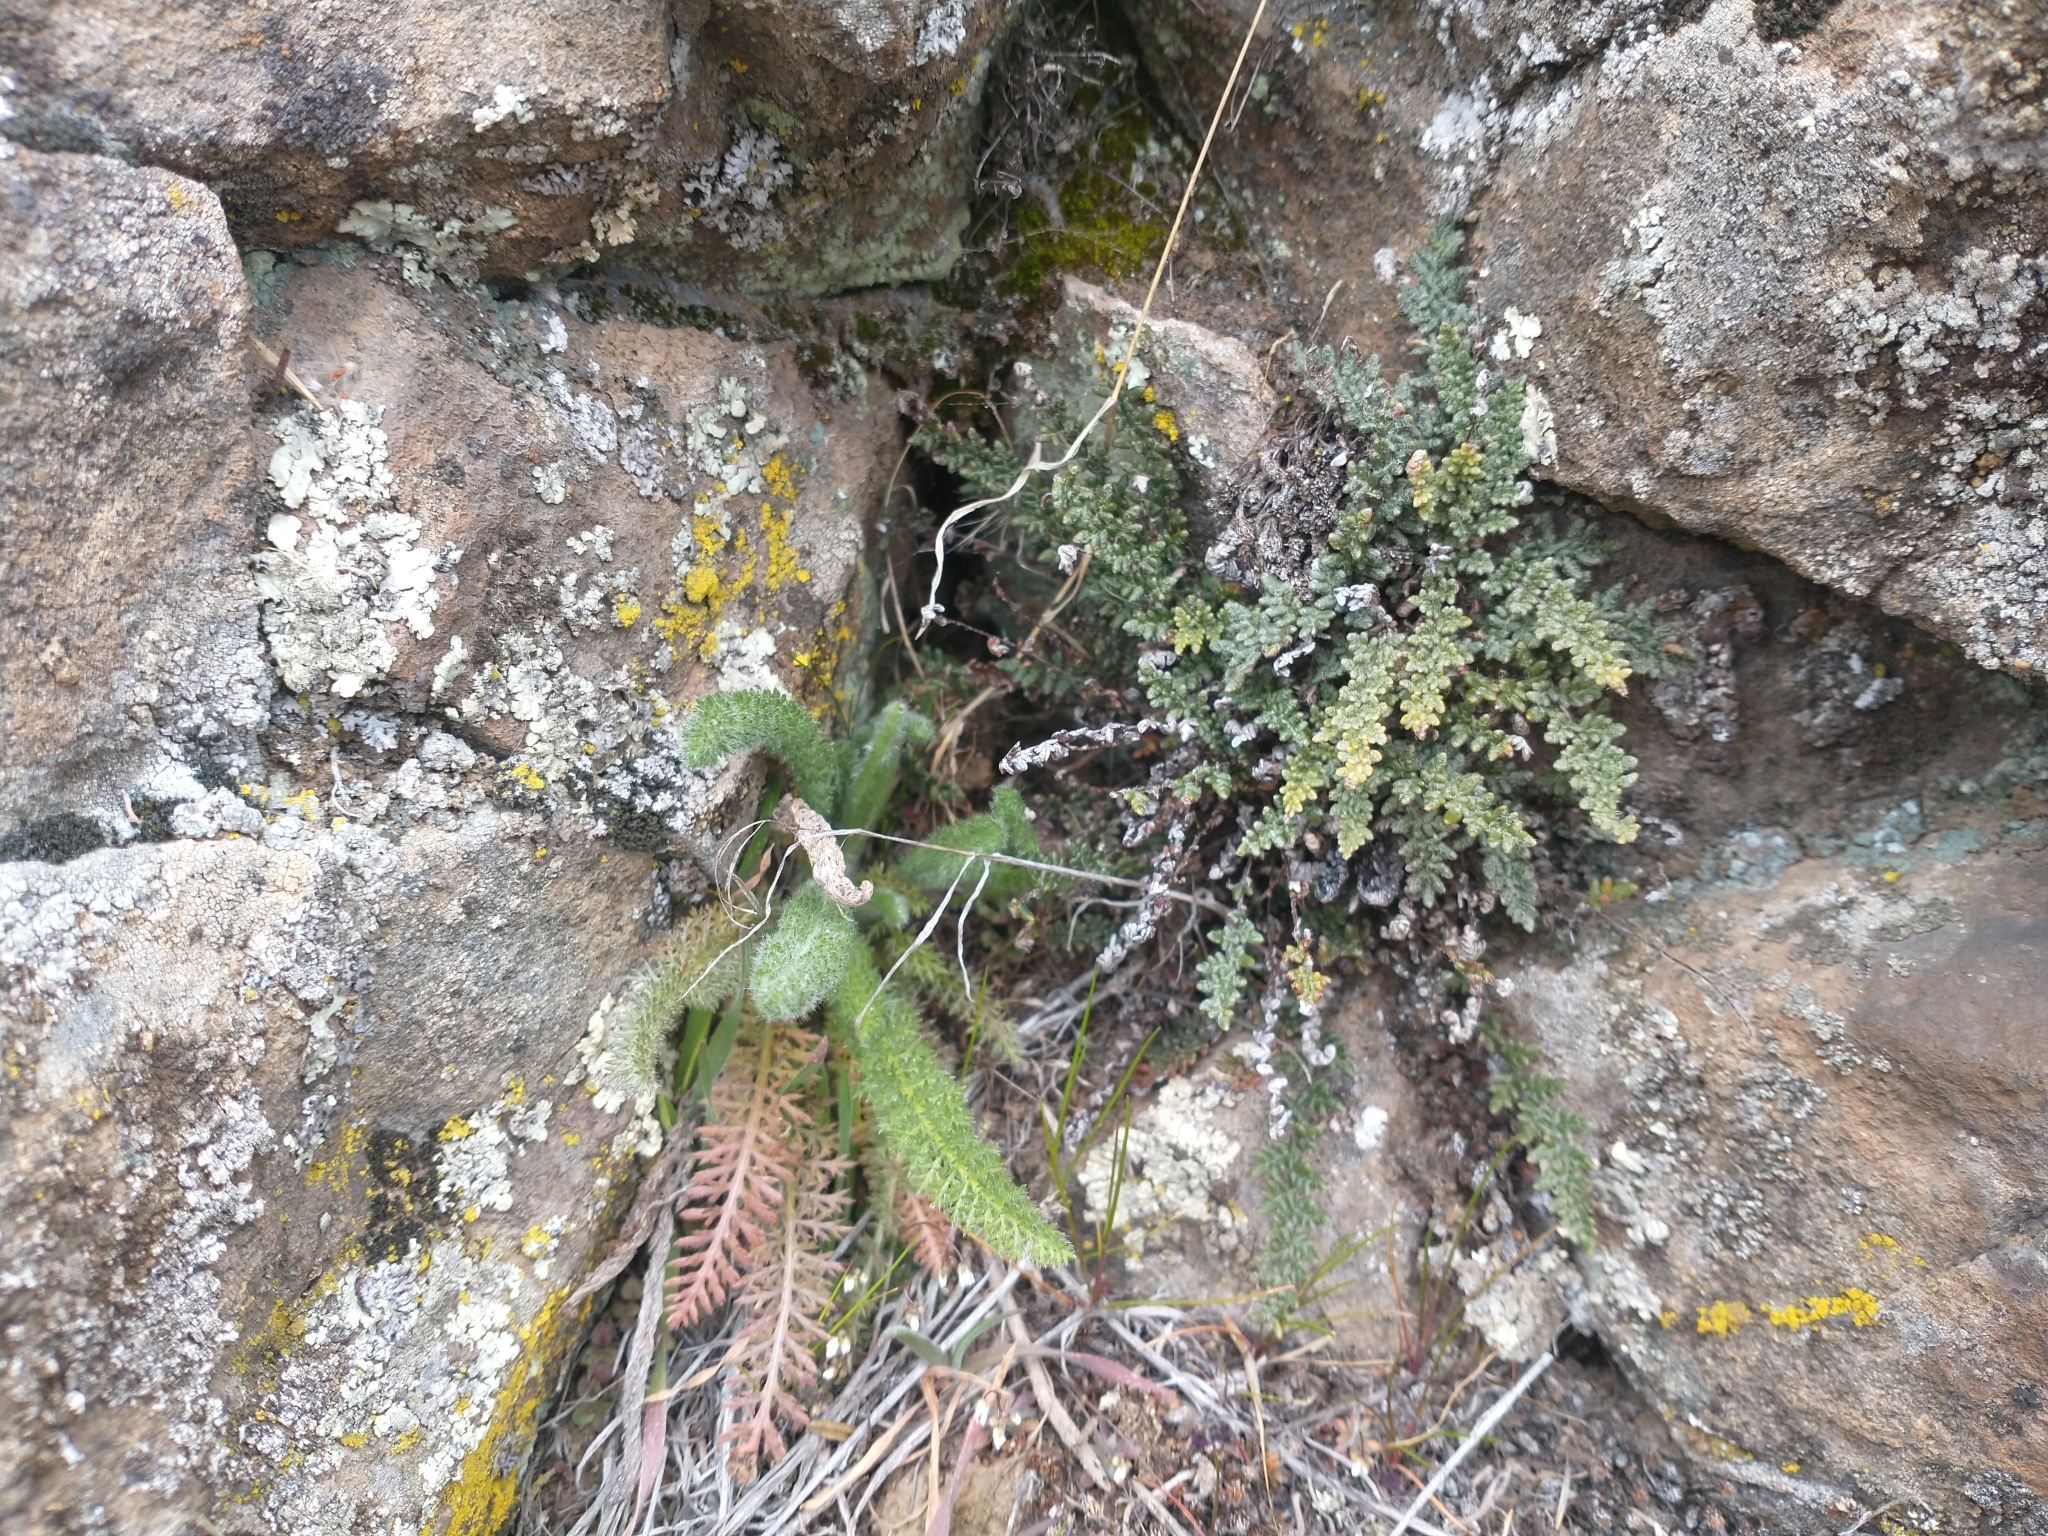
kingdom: Plantae
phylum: Tracheophyta
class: Magnoliopsida
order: Asterales
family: Asteraceae
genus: Achillea
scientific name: Achillea millefolium
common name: Yarrow
